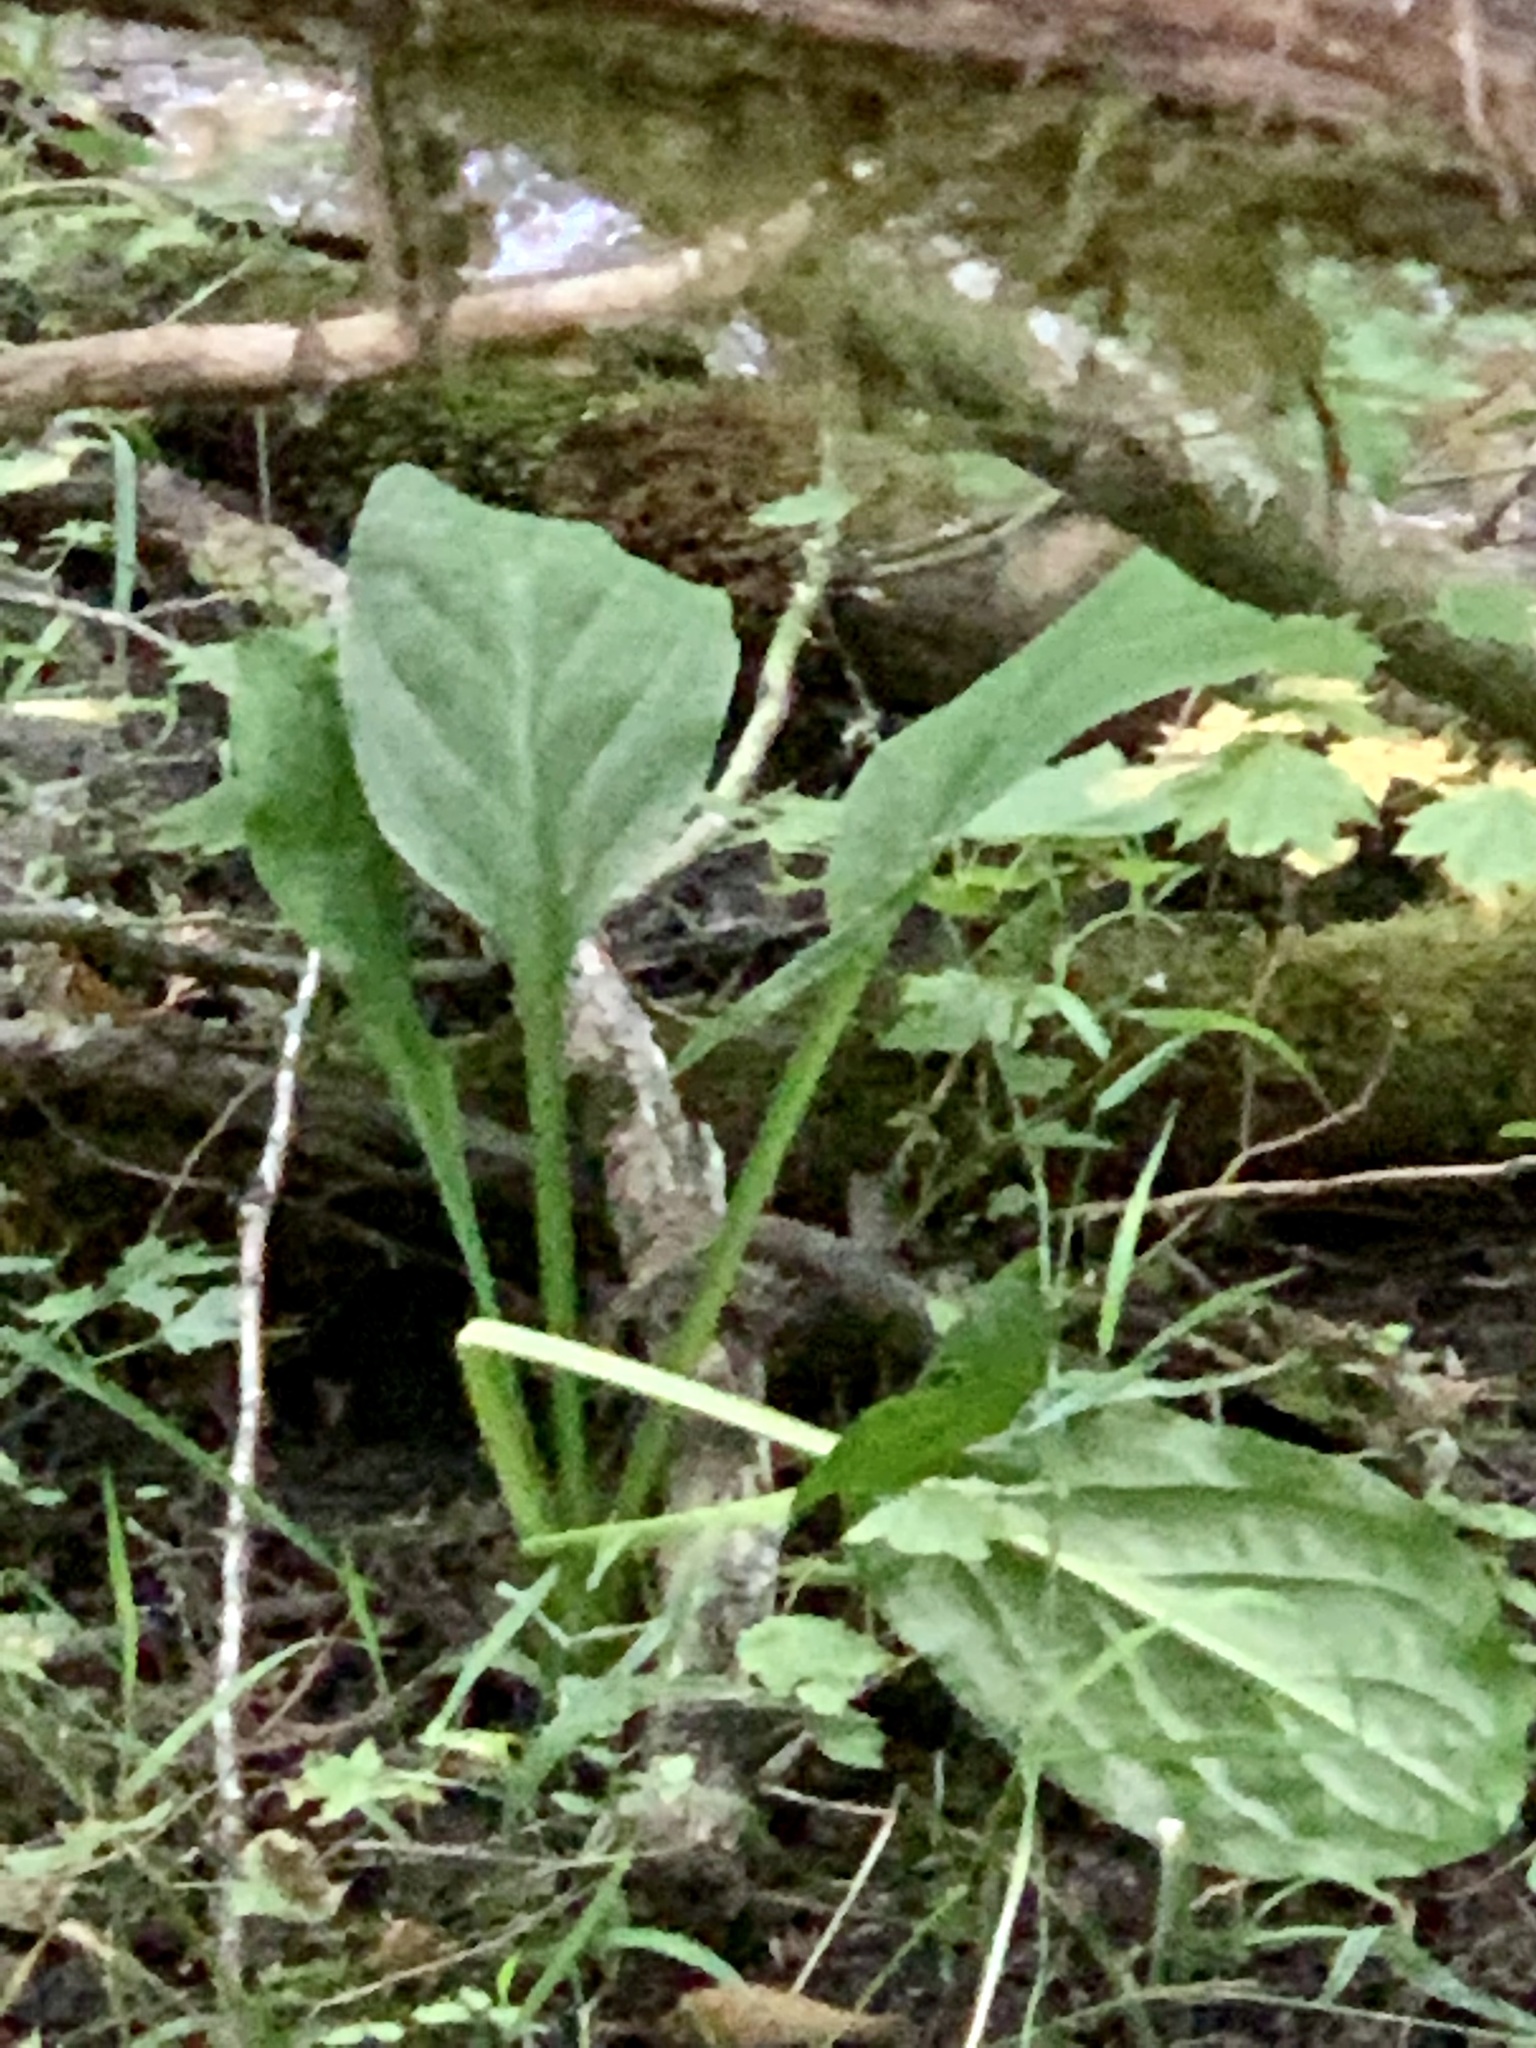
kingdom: Plantae
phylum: Tracheophyta
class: Liliopsida
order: Alismatales
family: Araceae
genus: Lysichiton
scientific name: Lysichiton americanus
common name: American skunk cabbage
